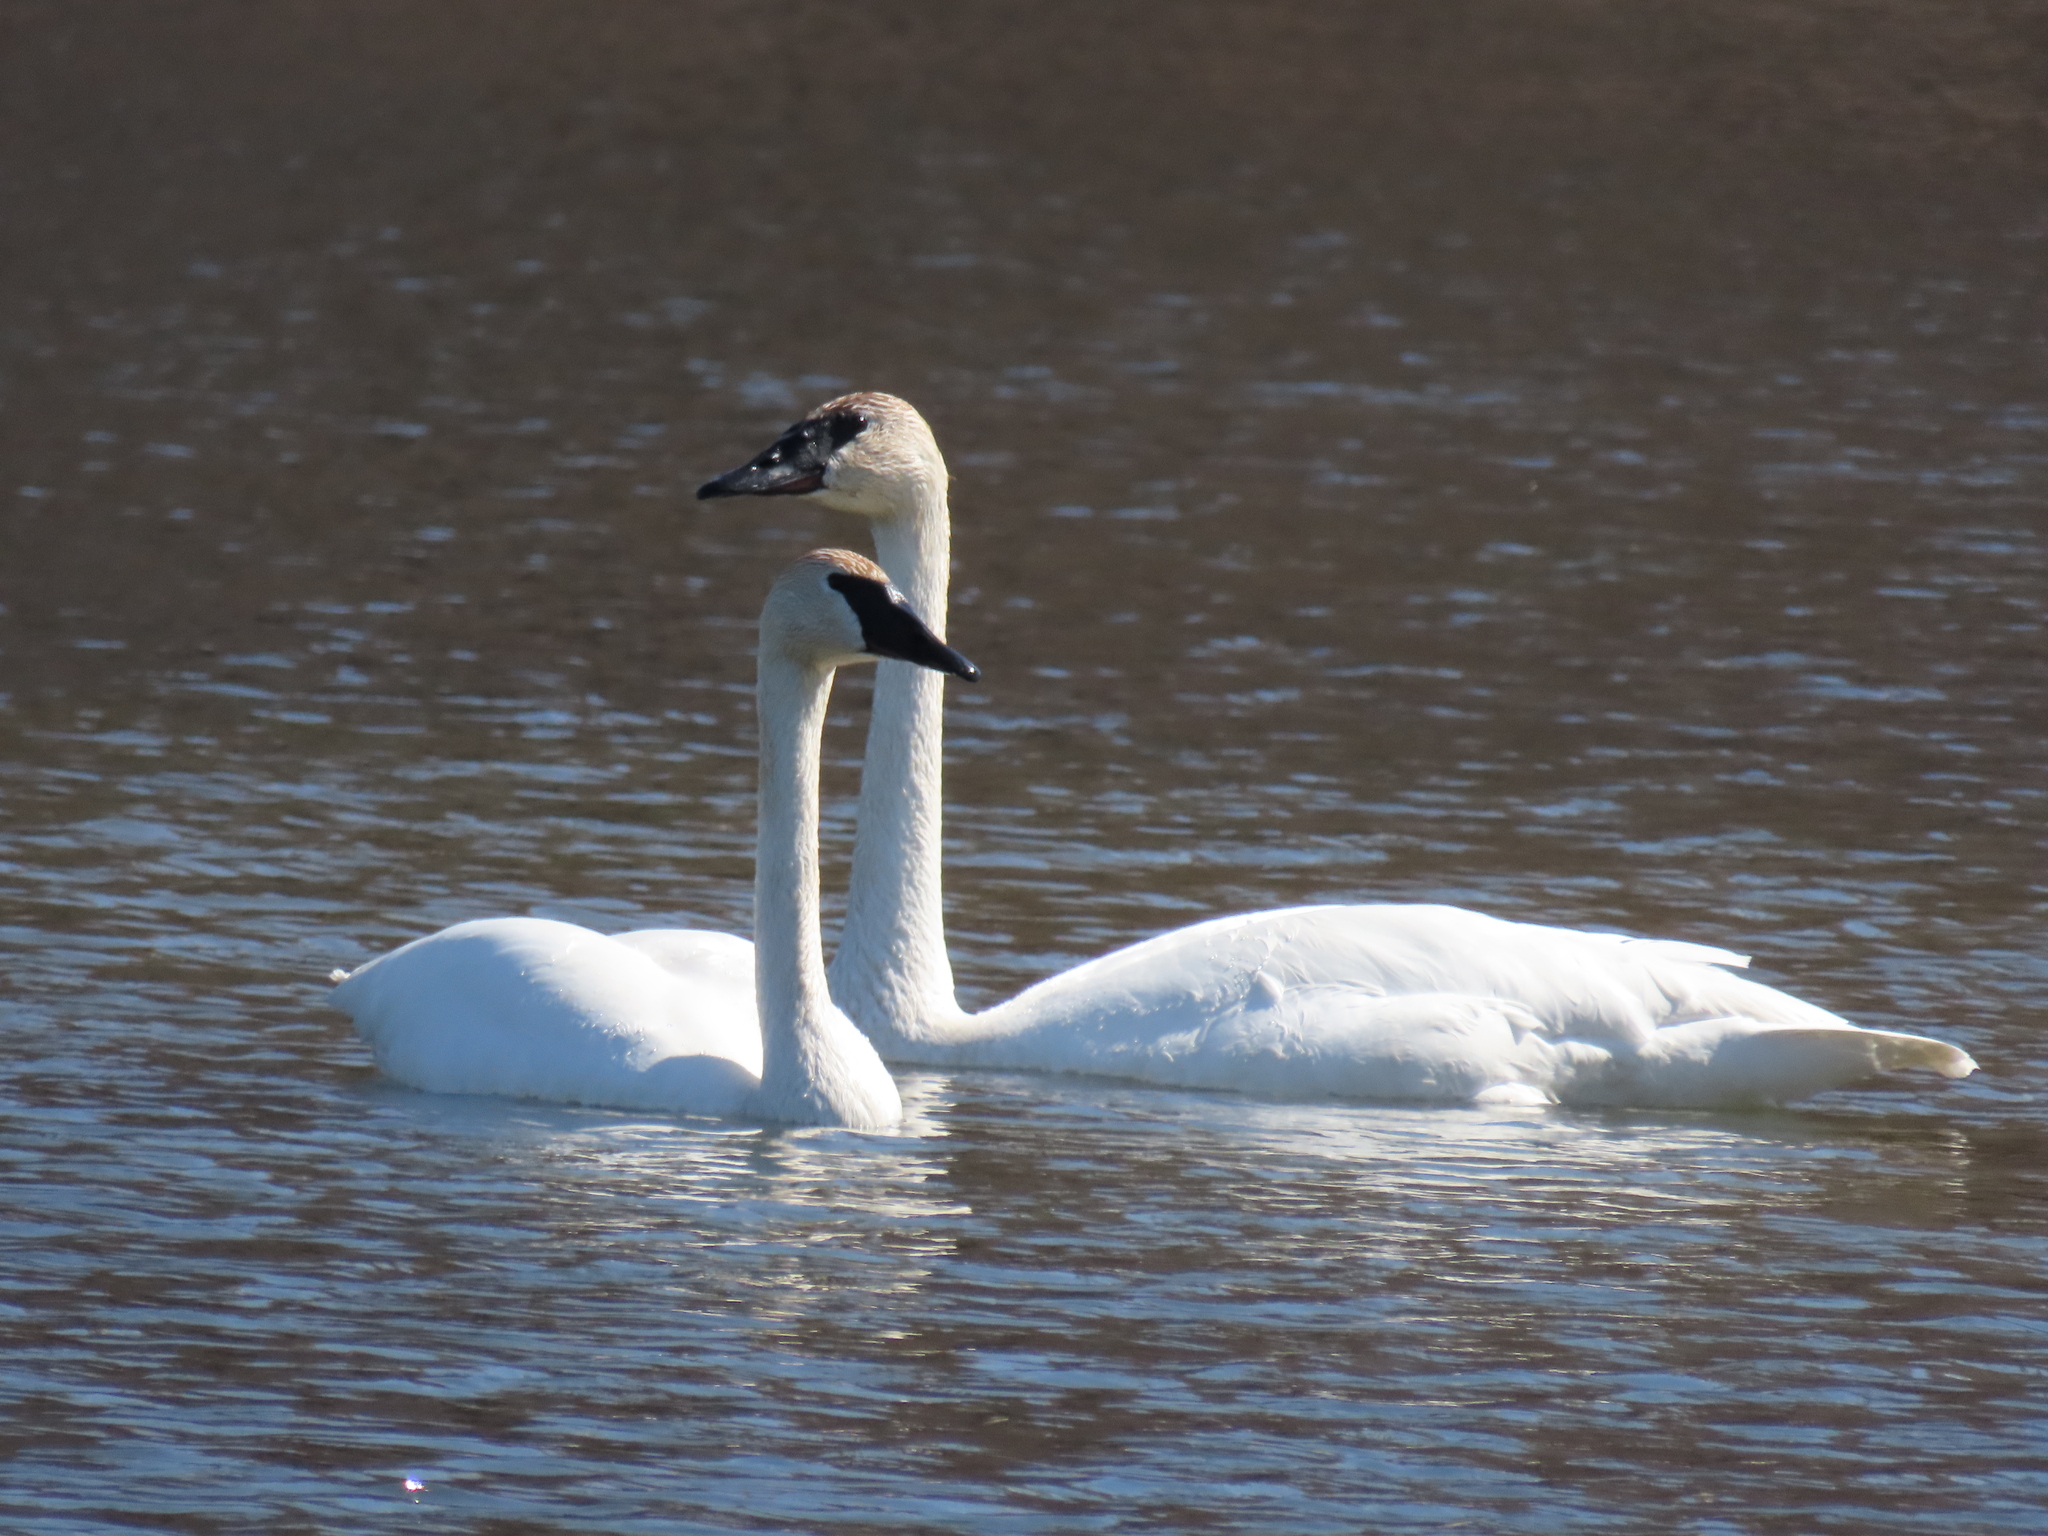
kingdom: Animalia
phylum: Chordata
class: Aves
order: Anseriformes
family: Anatidae
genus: Cygnus
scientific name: Cygnus buccinator
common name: Trumpeter swan
